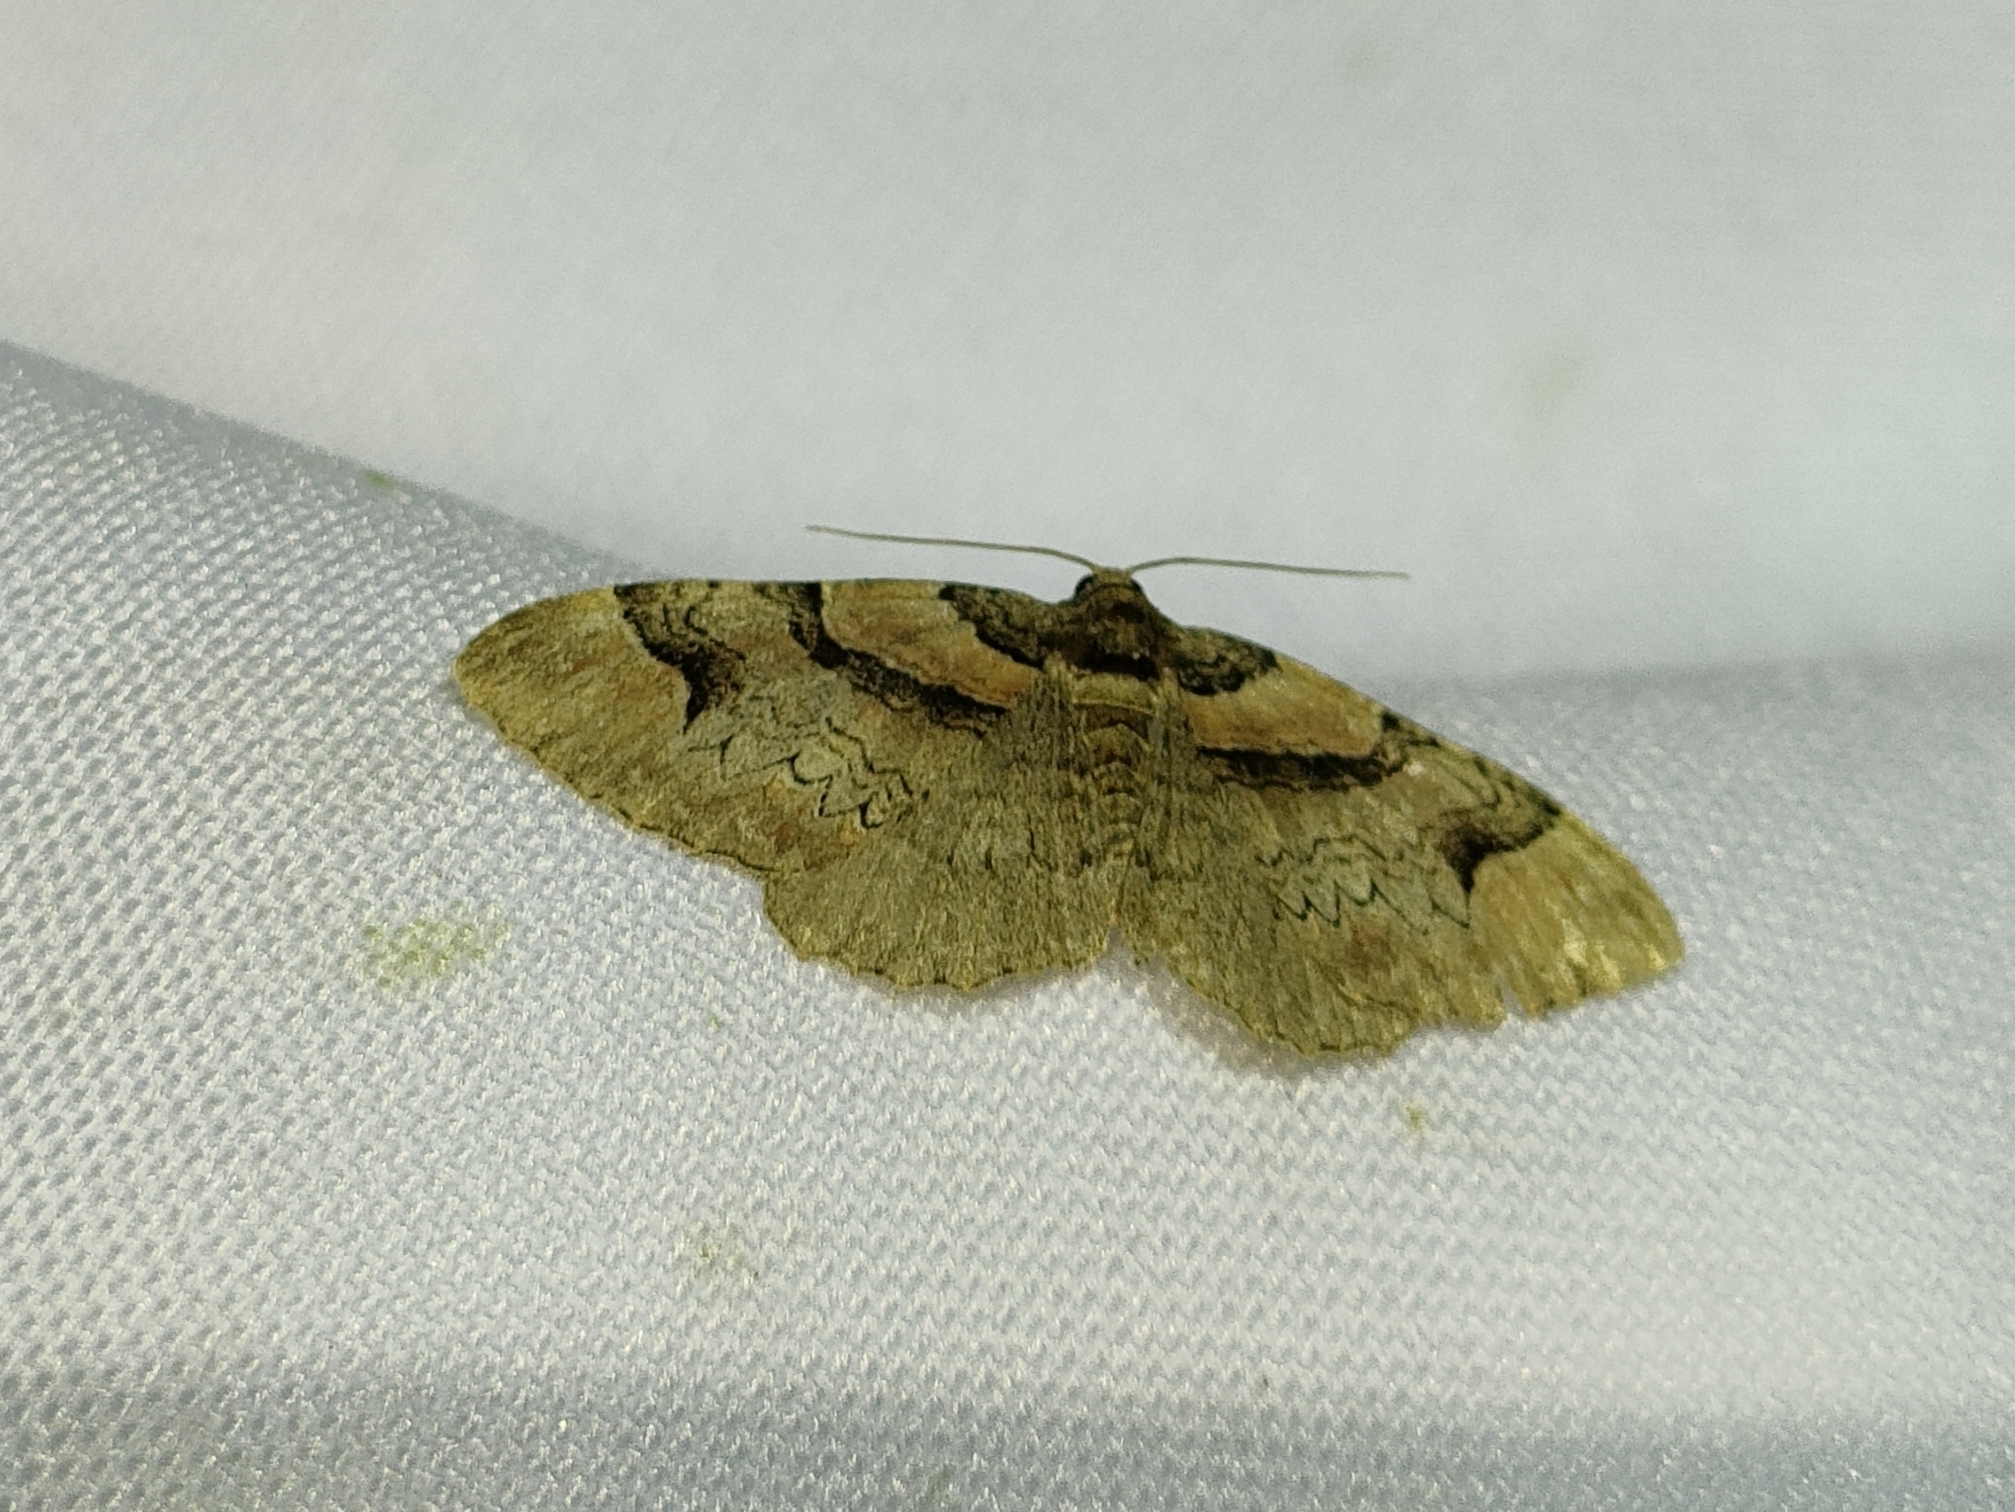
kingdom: Animalia
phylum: Arthropoda
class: Insecta
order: Lepidoptera
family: Geometridae
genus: Catarhoe
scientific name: Catarhoe rubidata
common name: Ruddy carpet
